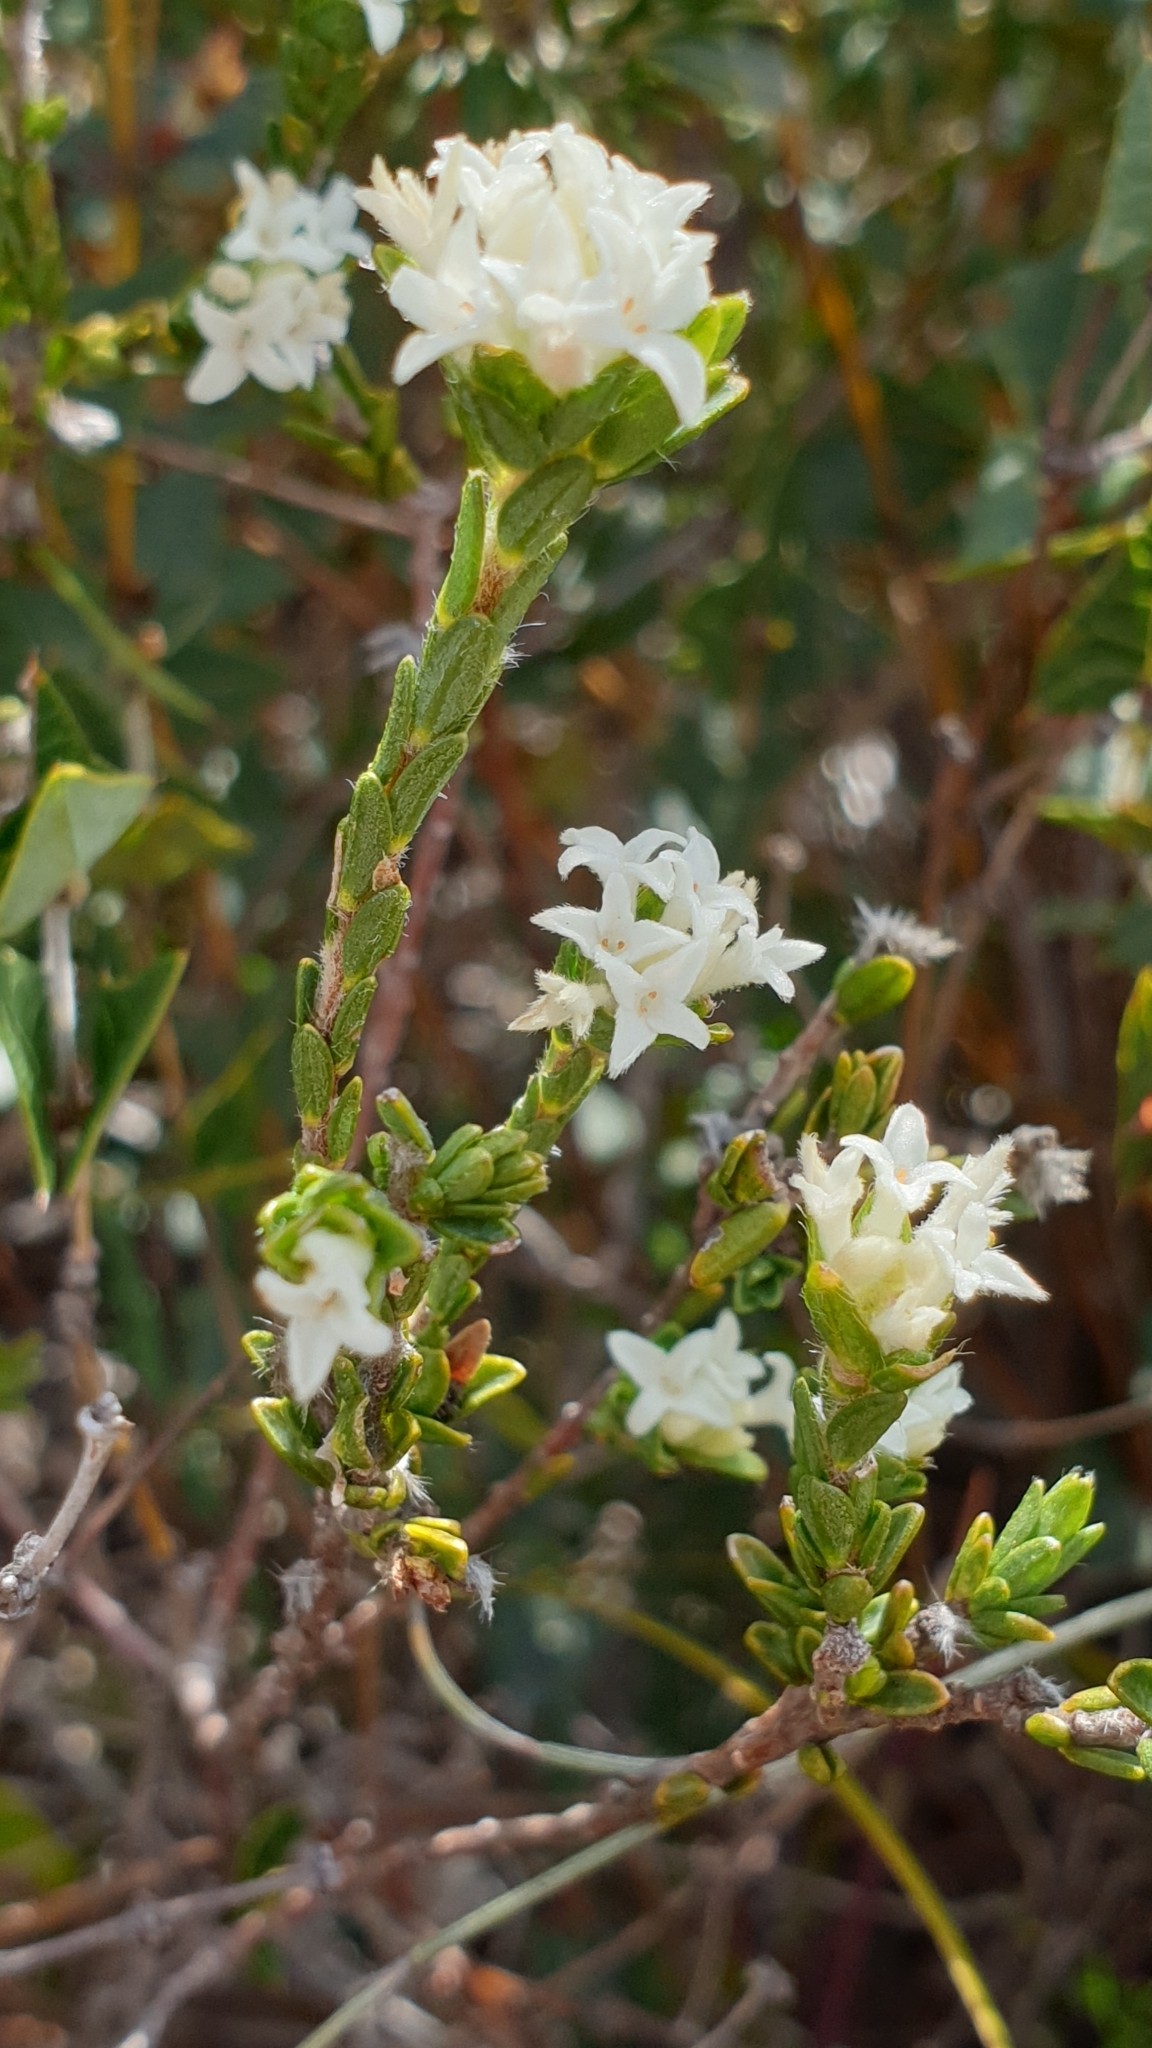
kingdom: Plantae
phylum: Tracheophyta
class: Magnoliopsida
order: Malvales
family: Thymelaeaceae
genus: Pimelea
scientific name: Pimelea phylicoides
